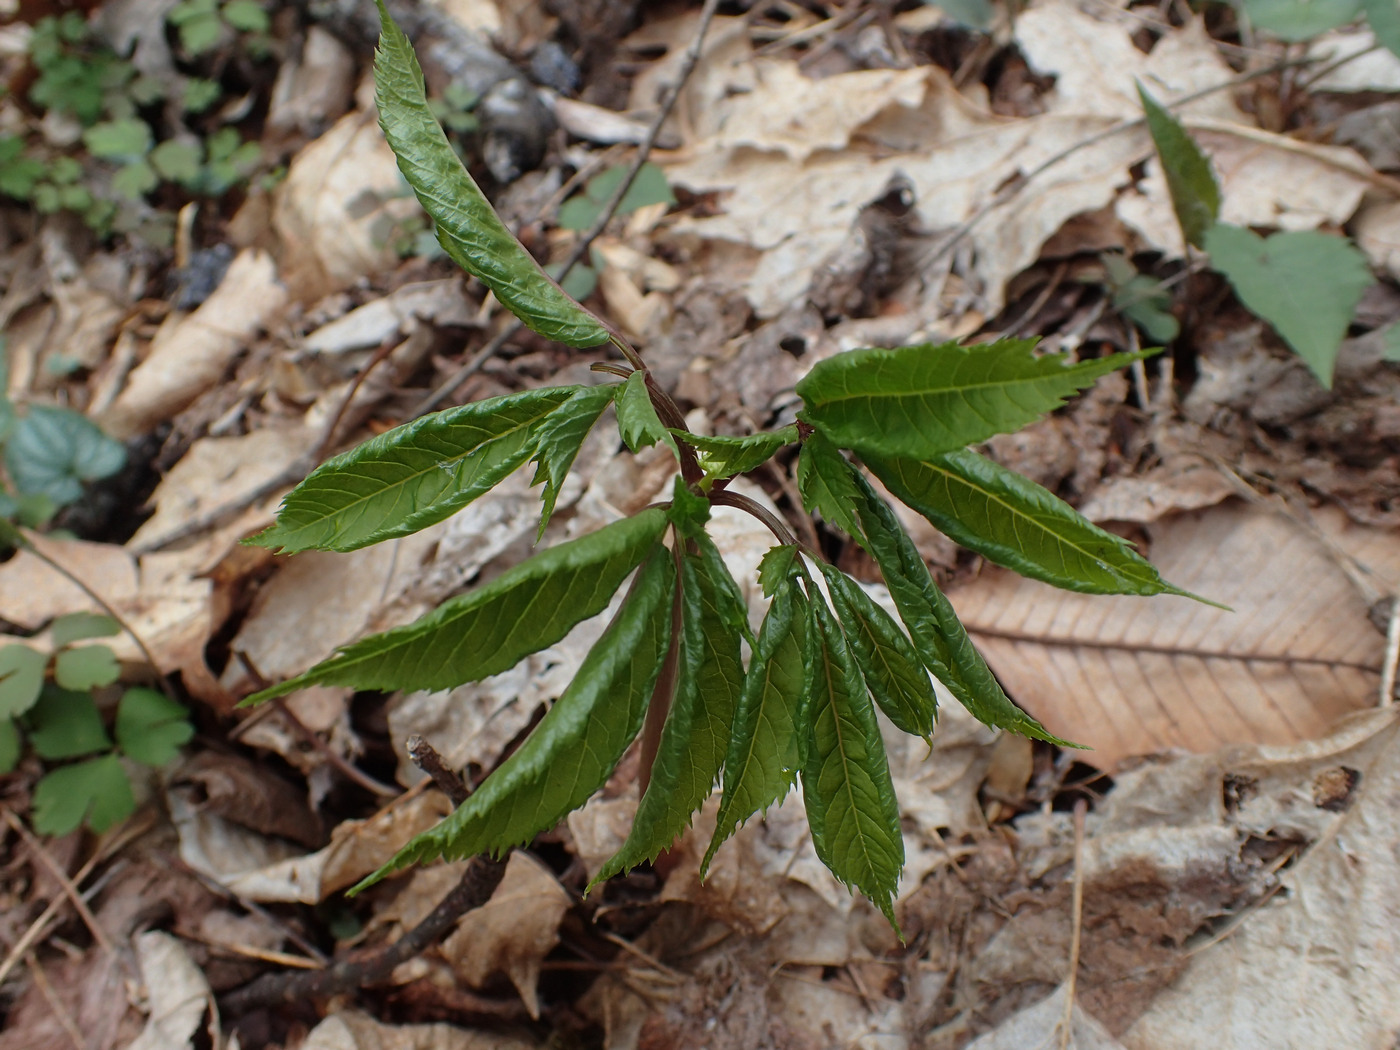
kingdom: Plantae
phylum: Tracheophyta
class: Magnoliopsida
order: Apiales
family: Araliaceae
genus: Panax
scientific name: Panax quinquefolius
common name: American ginseng
